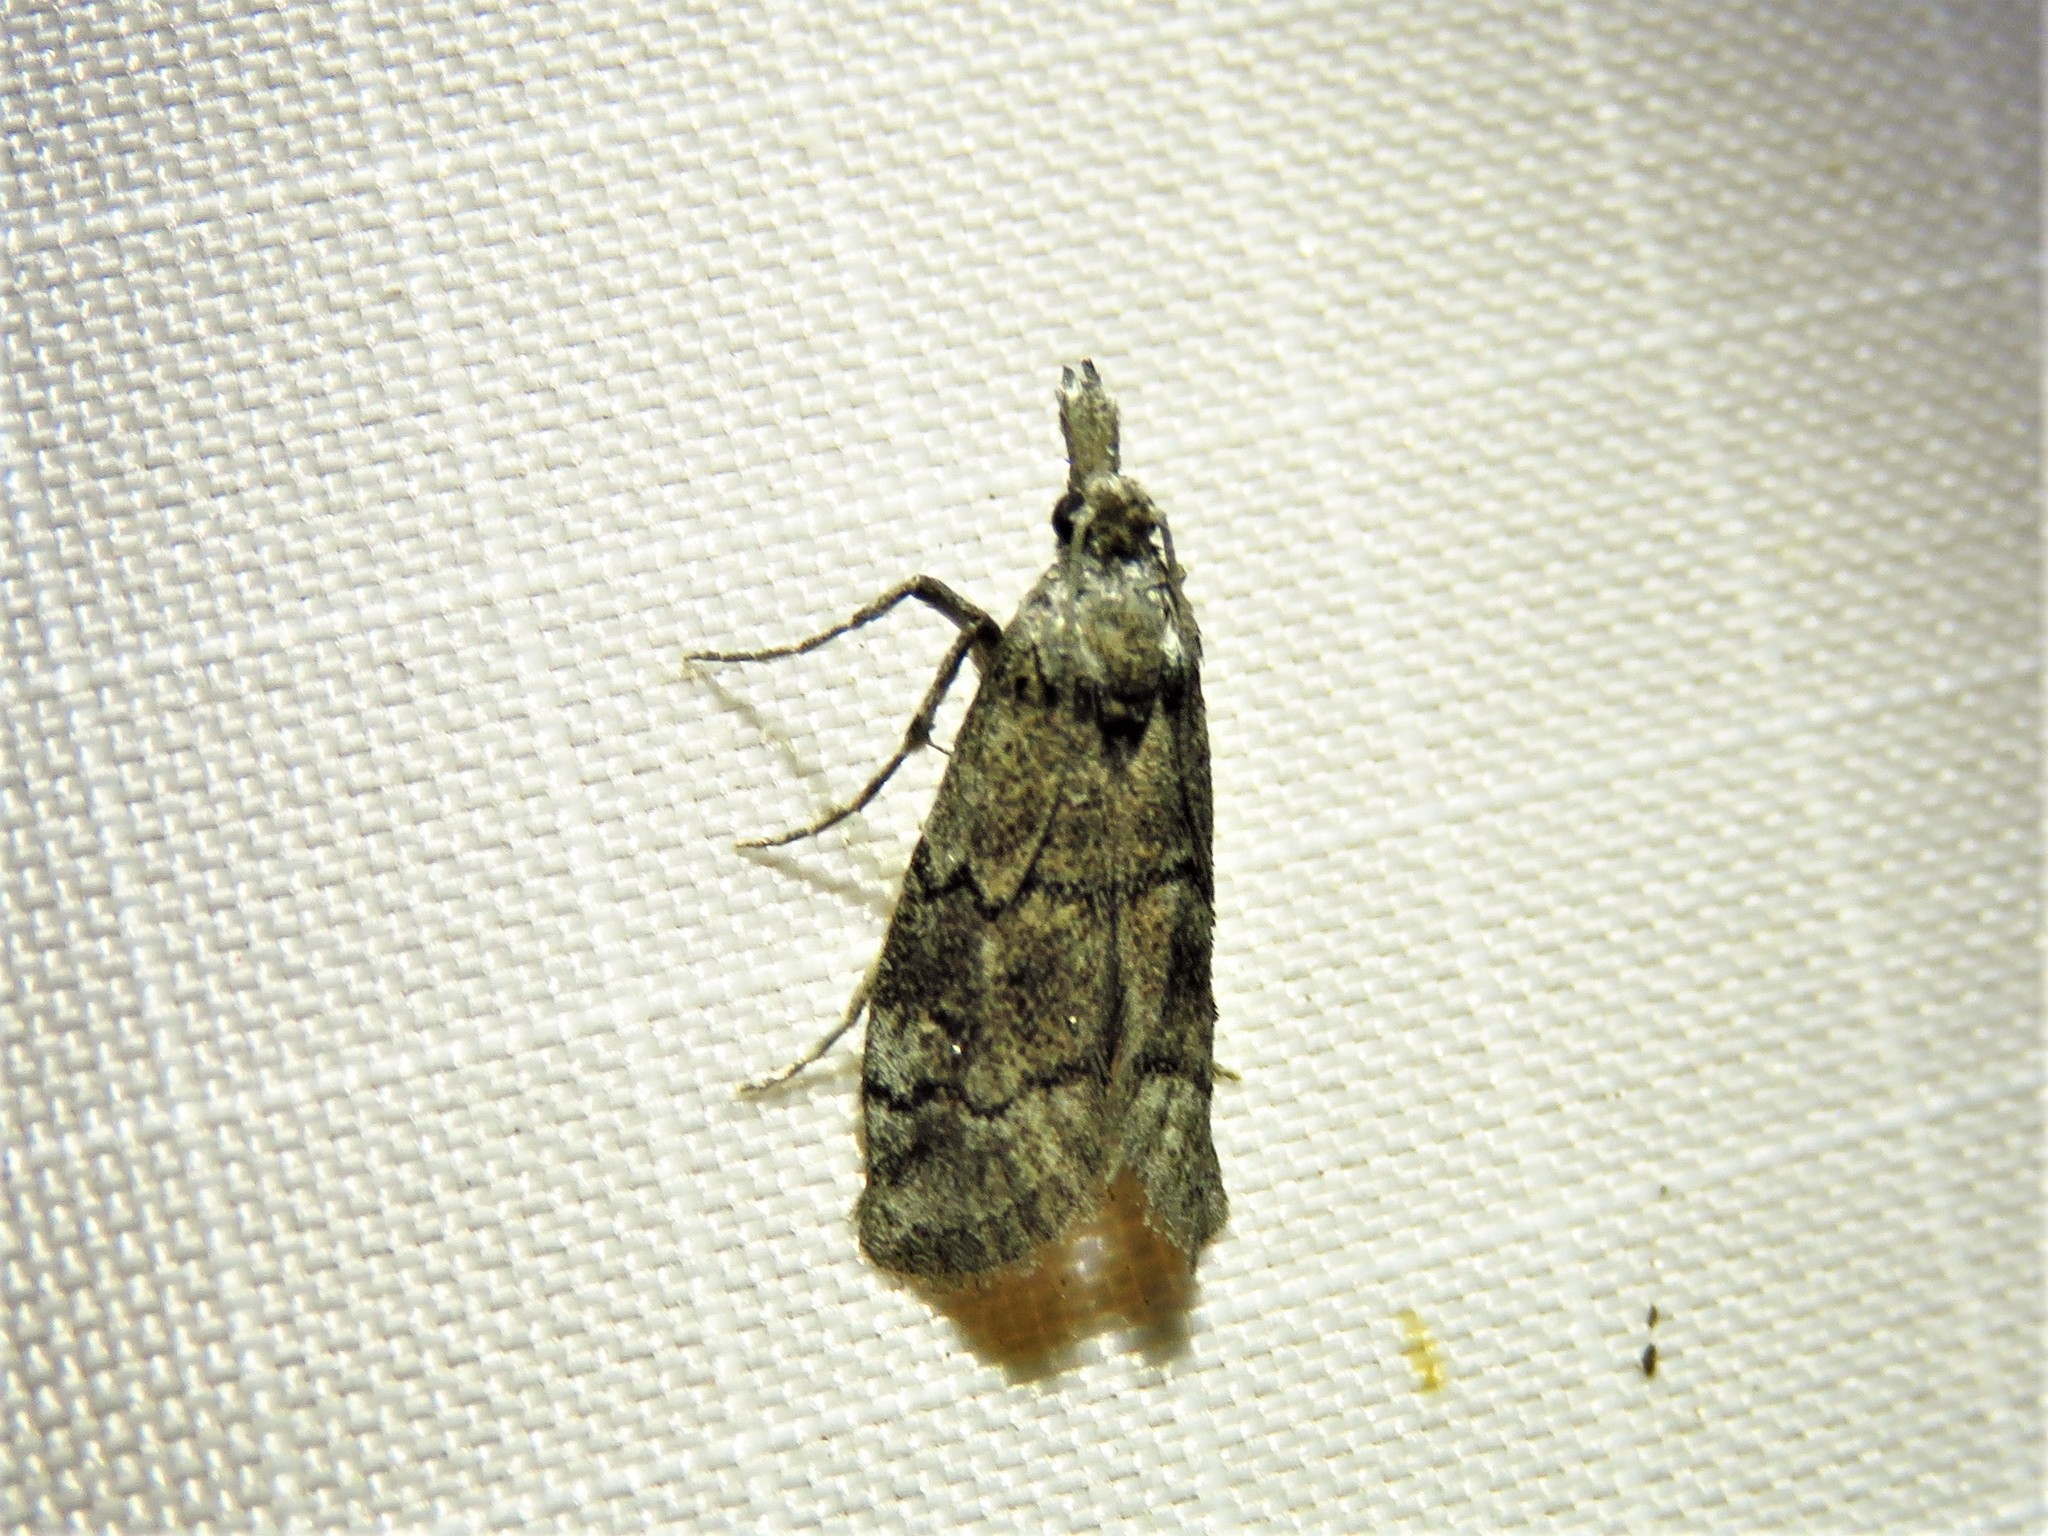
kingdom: Animalia
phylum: Arthropoda
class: Insecta
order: Lepidoptera
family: Pyralidae
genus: Cacotherapia
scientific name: Cacotherapia flexilinealis
